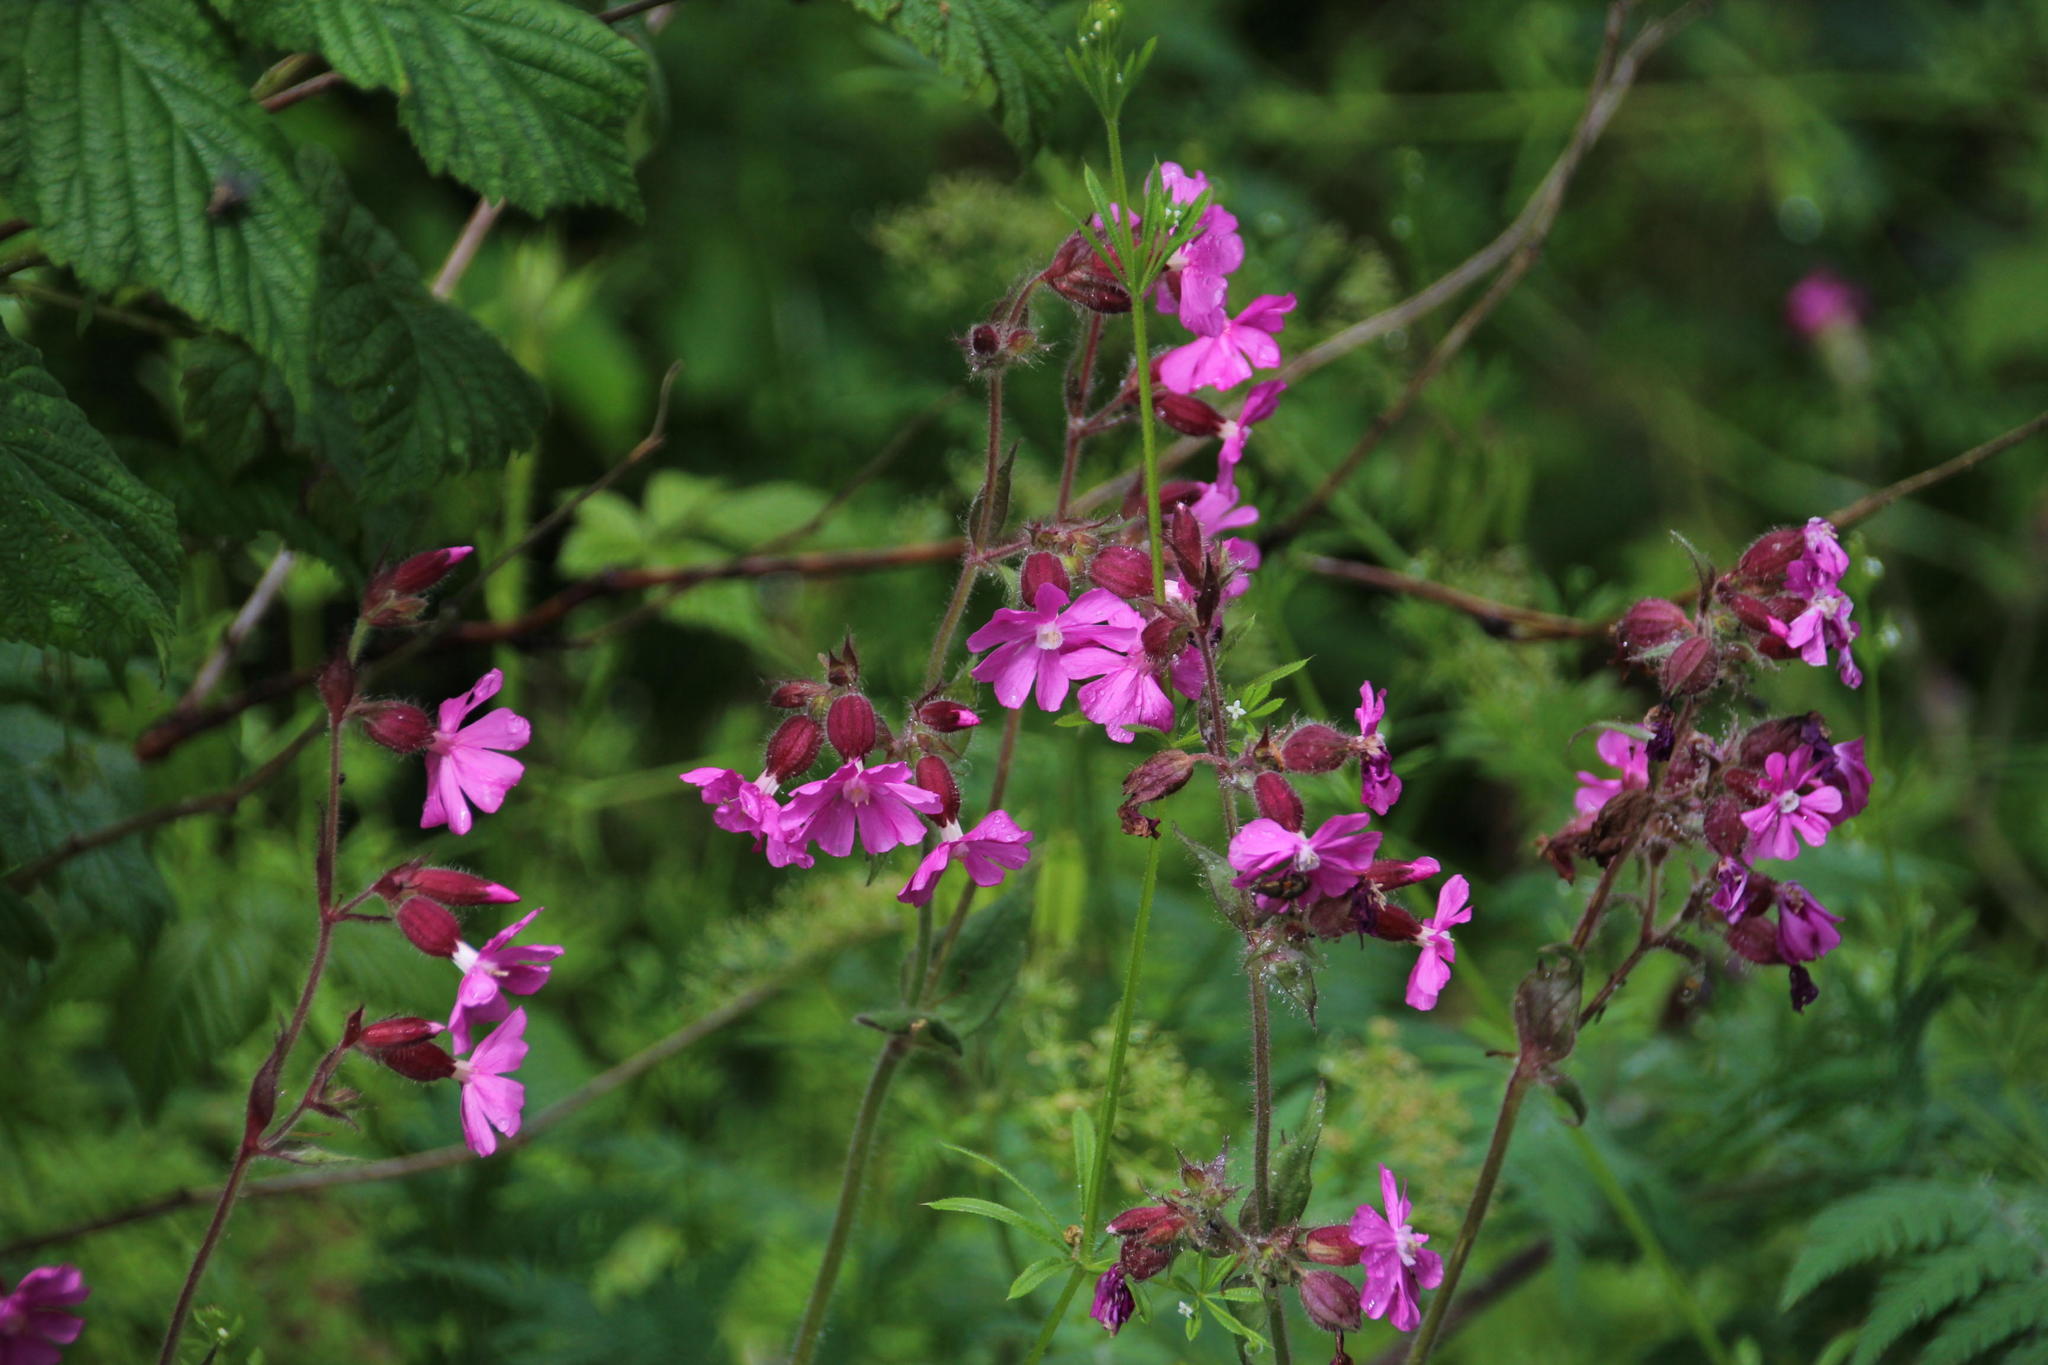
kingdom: Plantae
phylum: Tracheophyta
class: Magnoliopsida
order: Caryophyllales
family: Caryophyllaceae
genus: Silene
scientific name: Silene dioica
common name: Red campion
